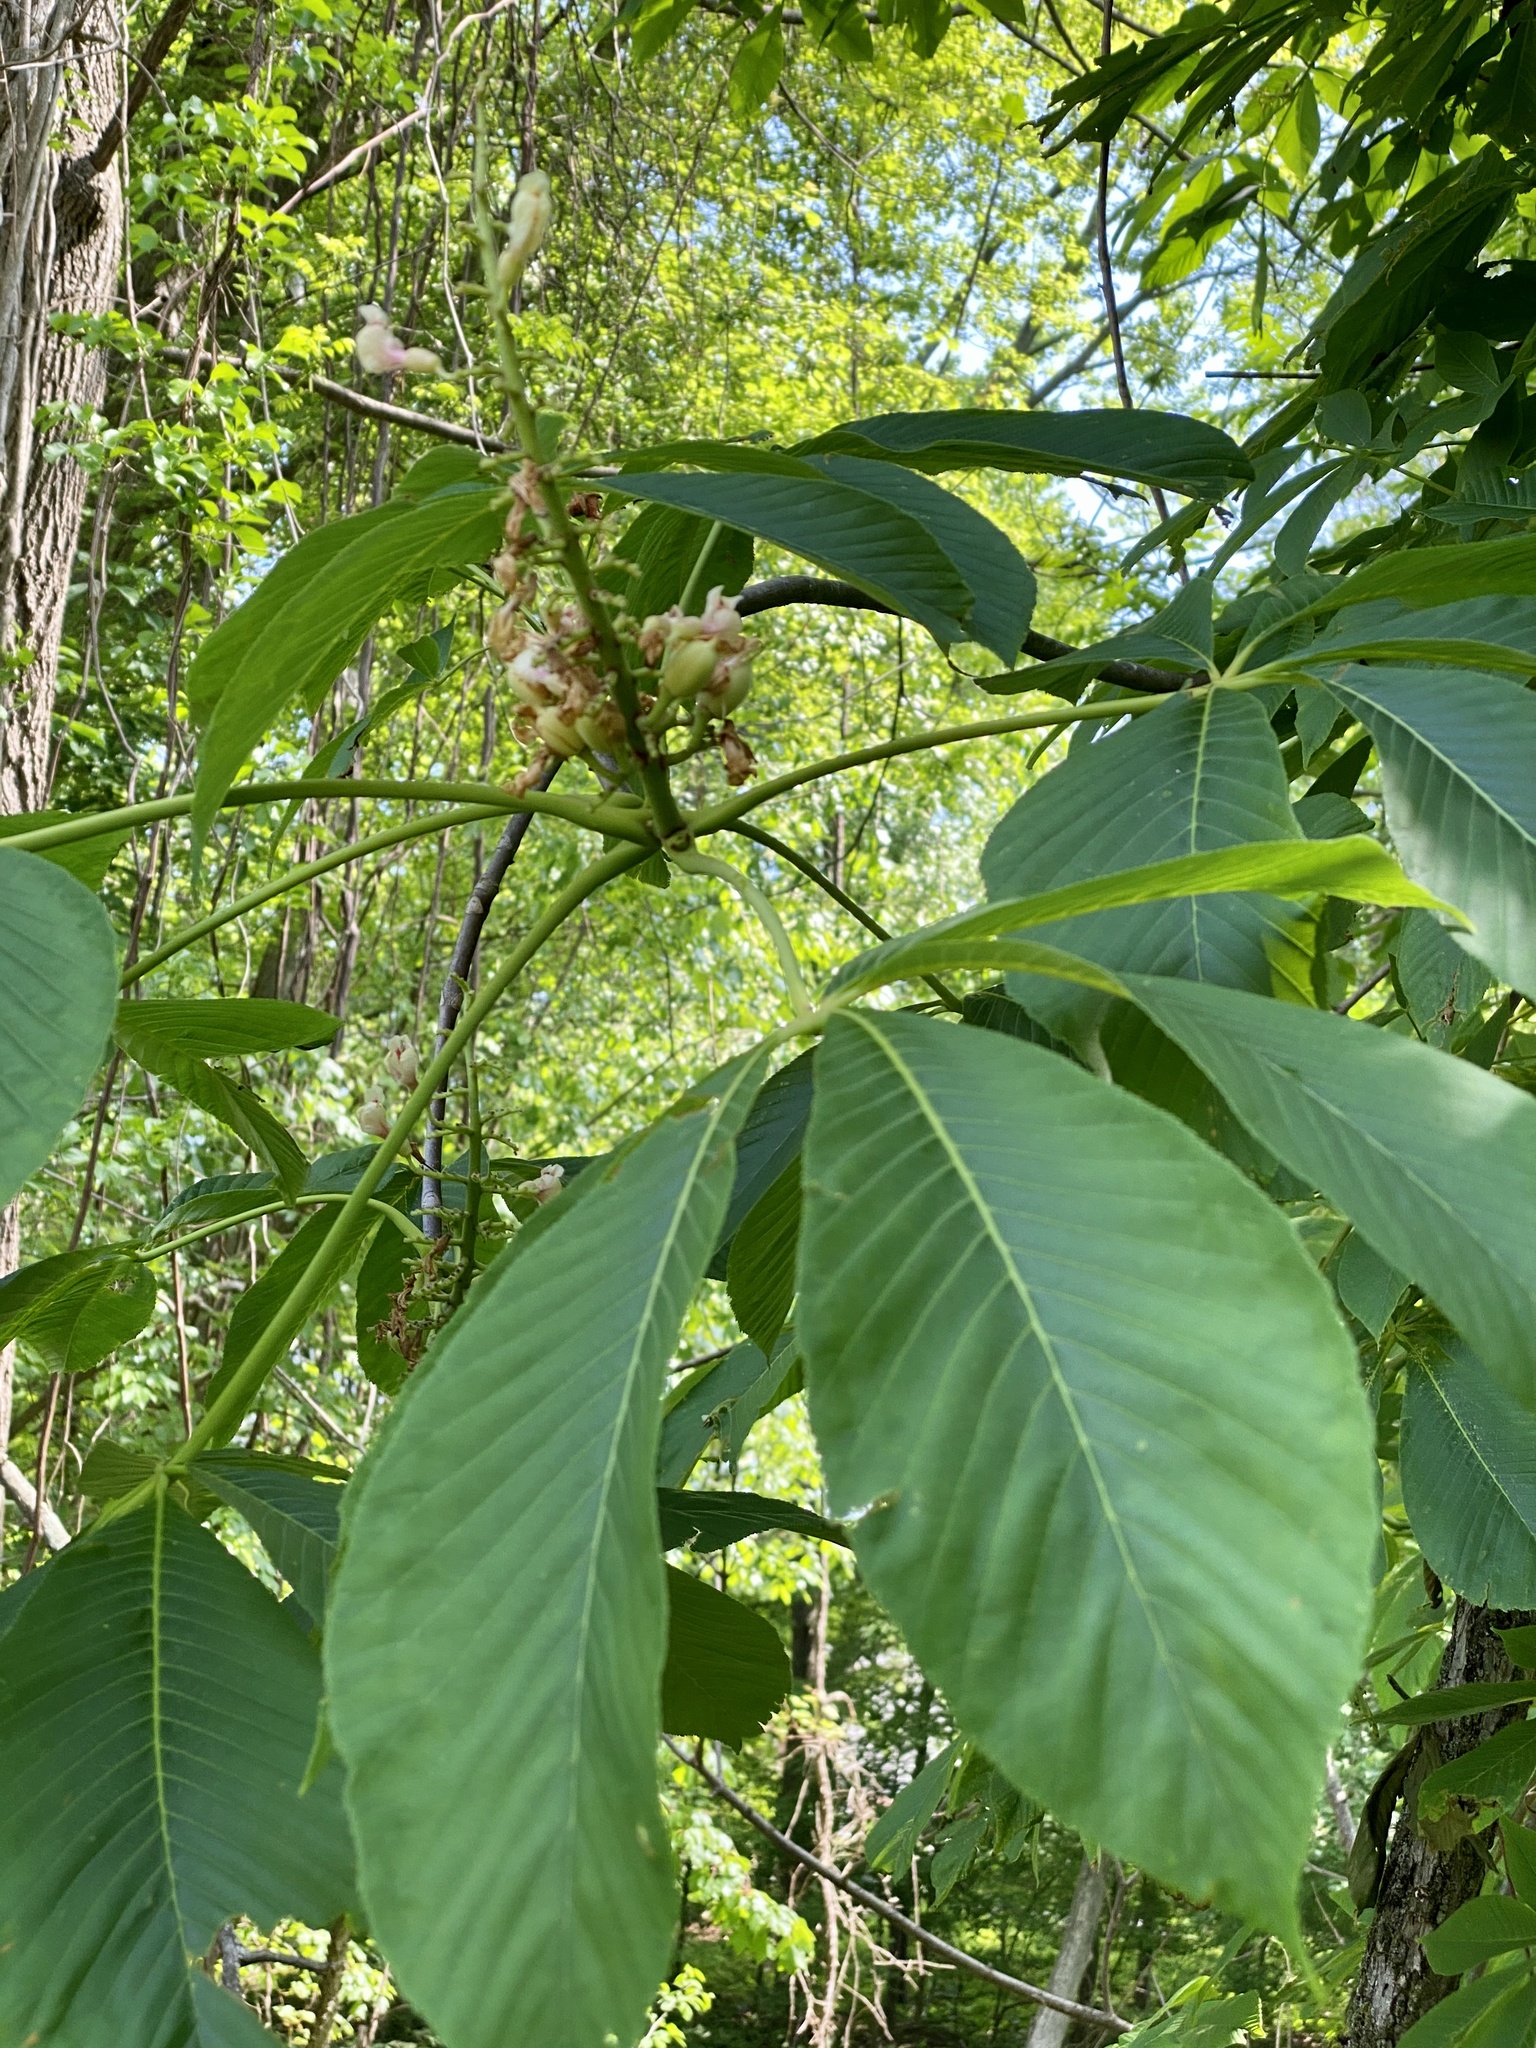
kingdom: Plantae
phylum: Tracheophyta
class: Magnoliopsida
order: Sapindales
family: Sapindaceae
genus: Aesculus
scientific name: Aesculus flava
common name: Yellow buckeye
